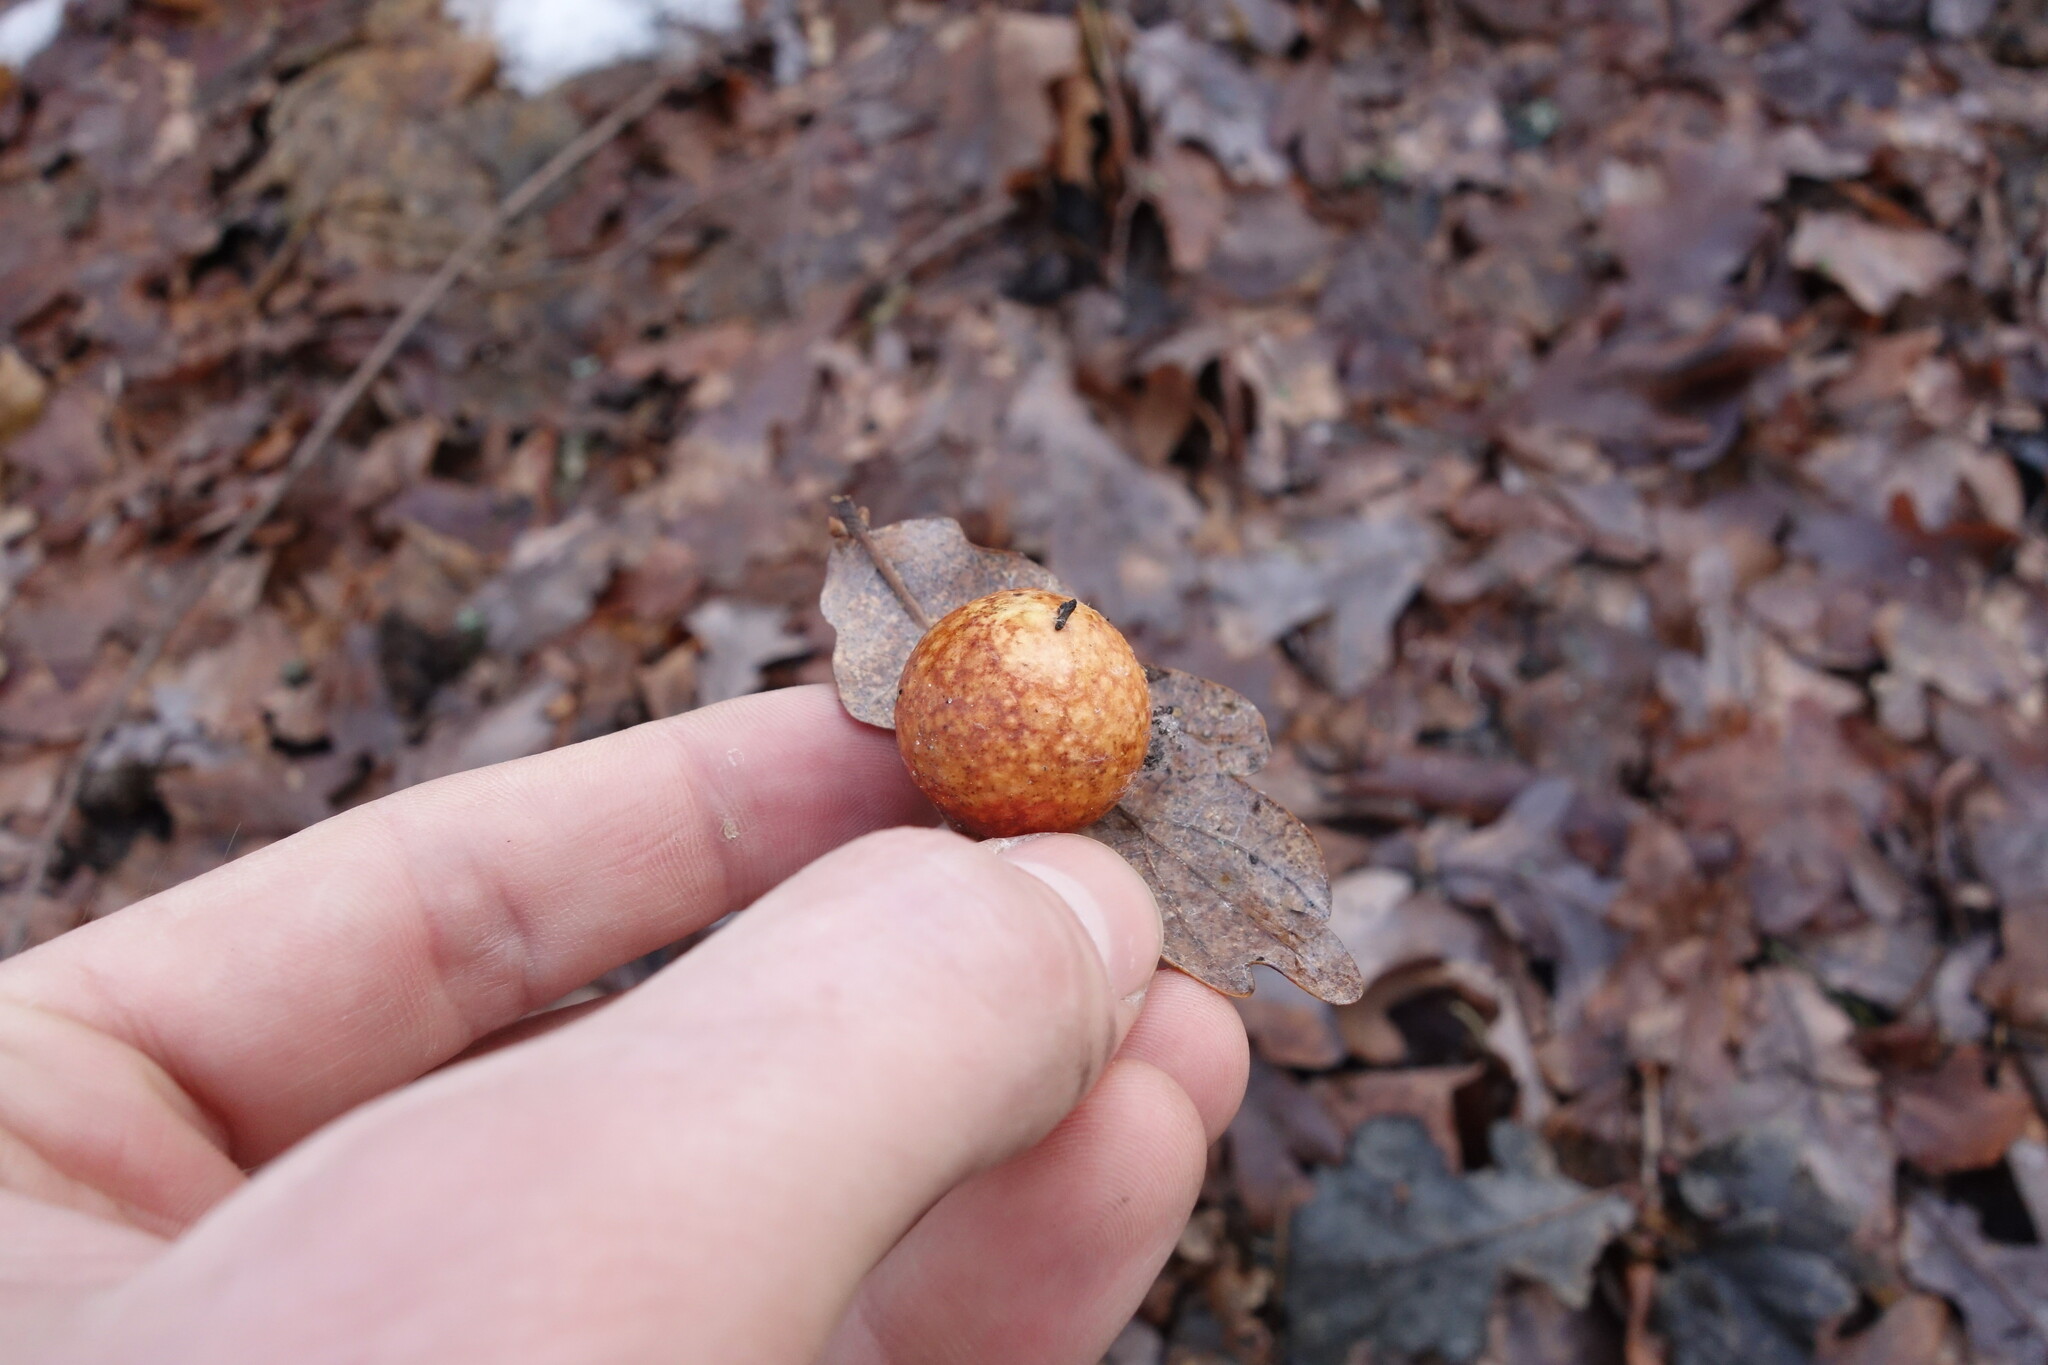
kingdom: Animalia
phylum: Arthropoda
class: Insecta
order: Hymenoptera
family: Cynipidae
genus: Cynips
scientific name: Cynips quercusfolii
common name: Cherry gall
